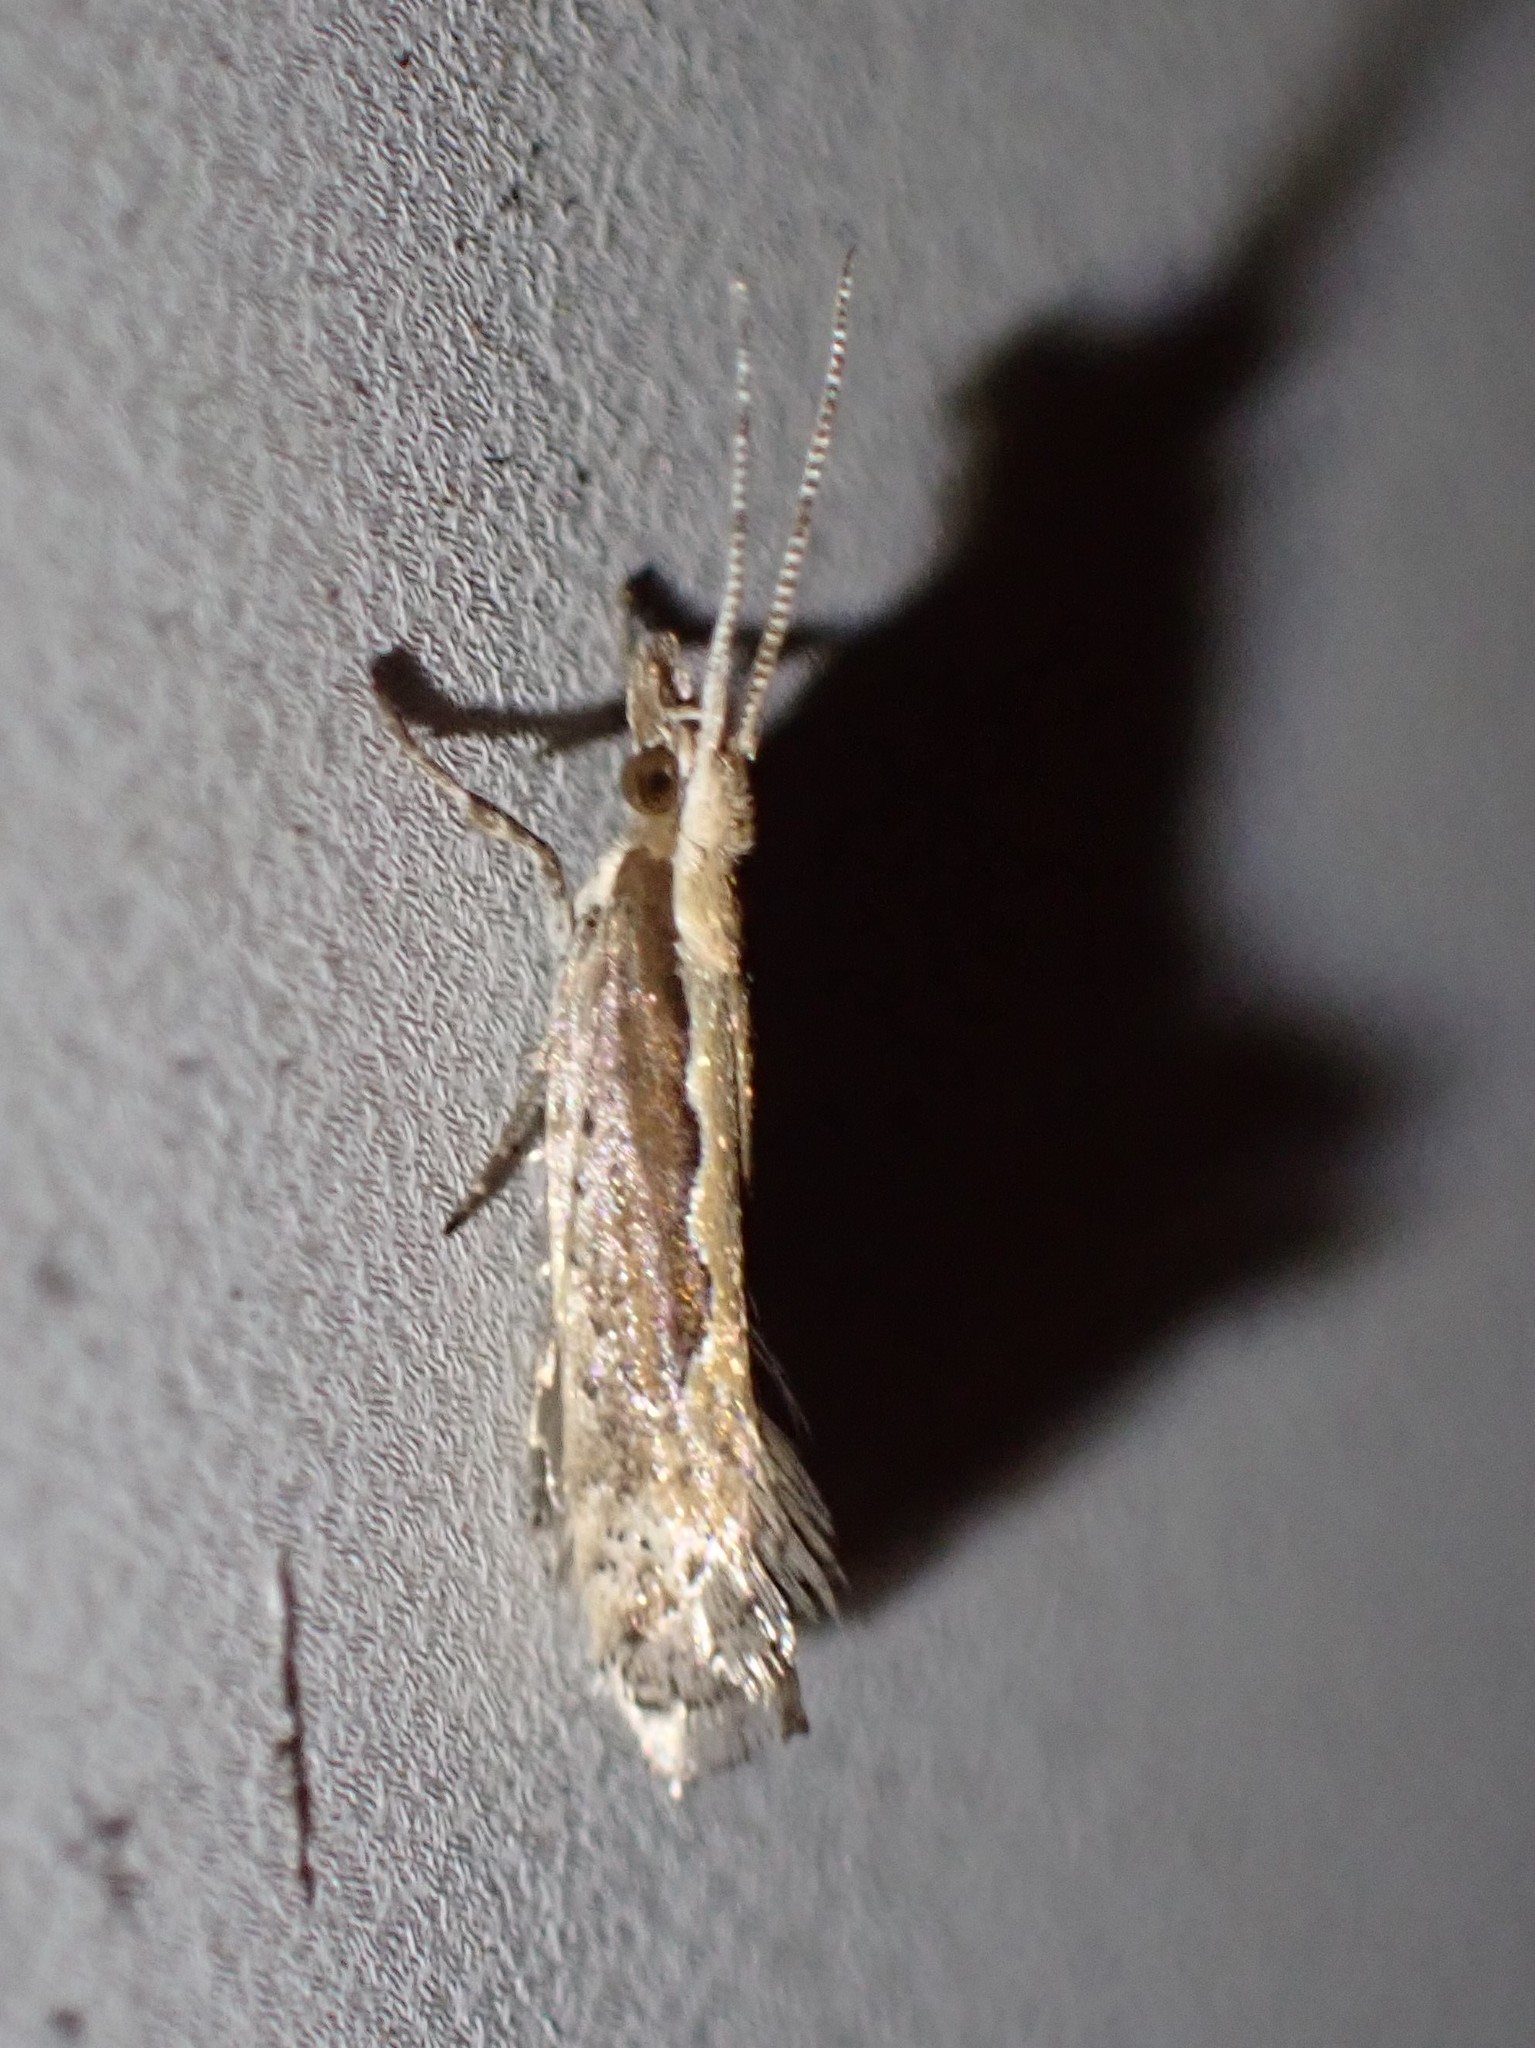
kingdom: Animalia
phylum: Arthropoda
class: Insecta
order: Lepidoptera
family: Plutellidae
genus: Plutella
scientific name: Plutella xylostella
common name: Diamond-back moth
